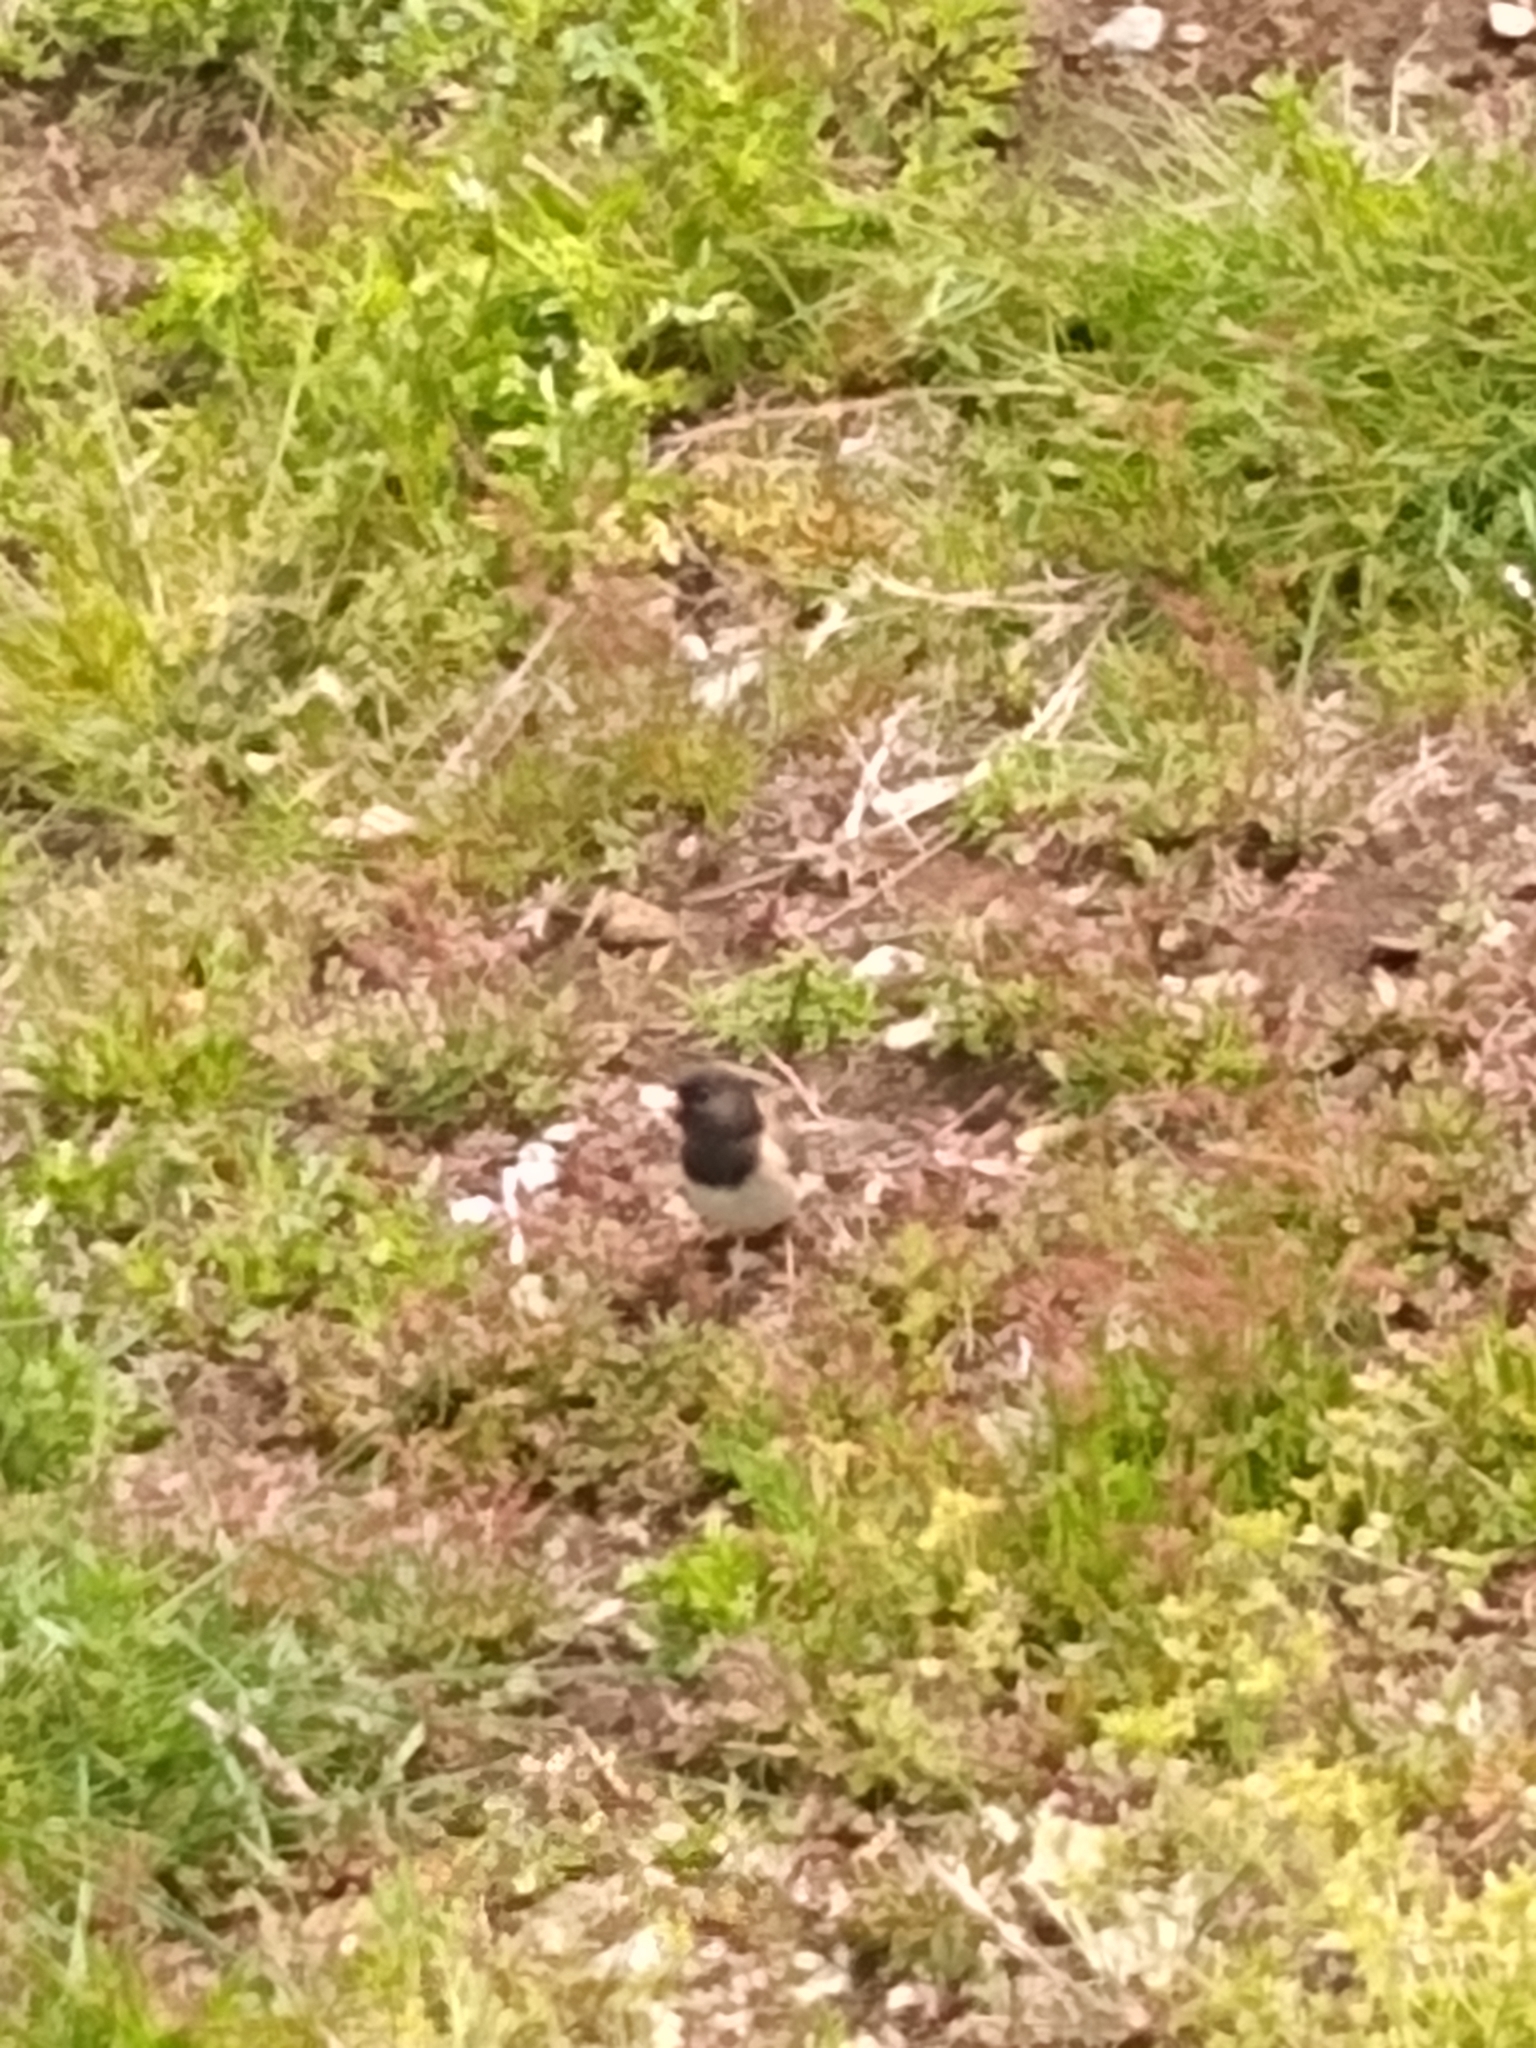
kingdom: Animalia
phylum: Chordata
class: Aves
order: Passeriformes
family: Passerellidae
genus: Junco
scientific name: Junco hyemalis
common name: Dark-eyed junco
